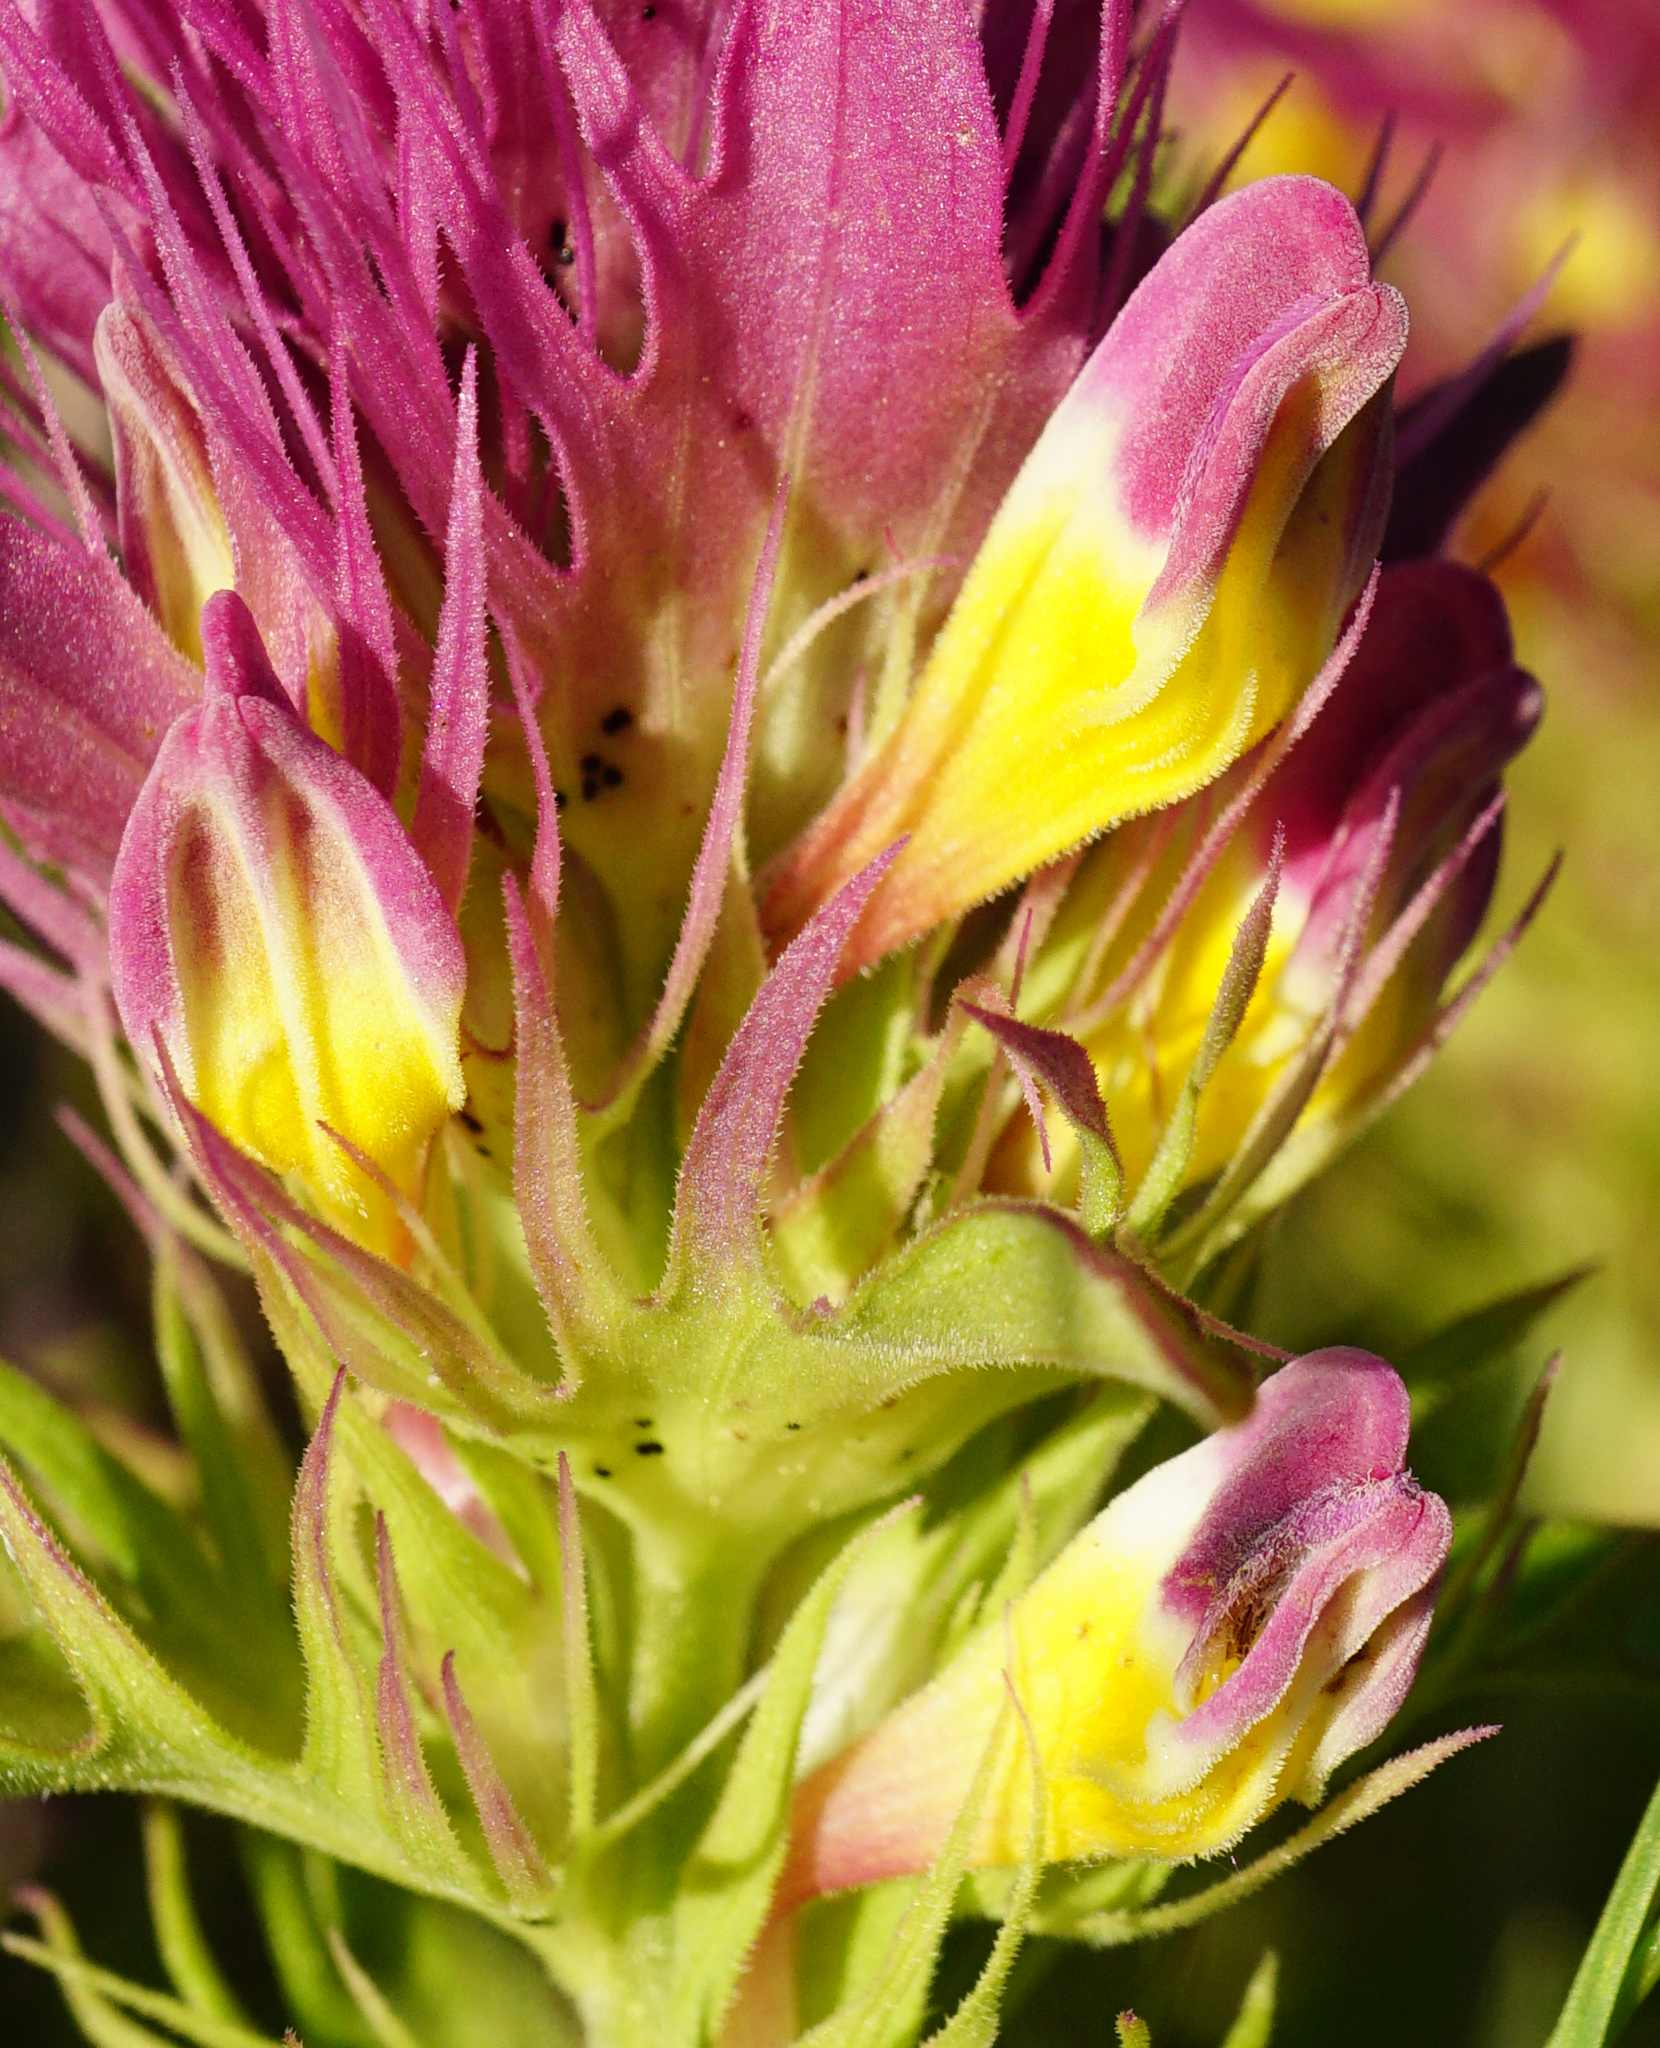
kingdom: Plantae
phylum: Tracheophyta
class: Magnoliopsida
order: Lamiales
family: Orobanchaceae
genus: Melampyrum
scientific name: Melampyrum arvense
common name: Field cow-wheat
